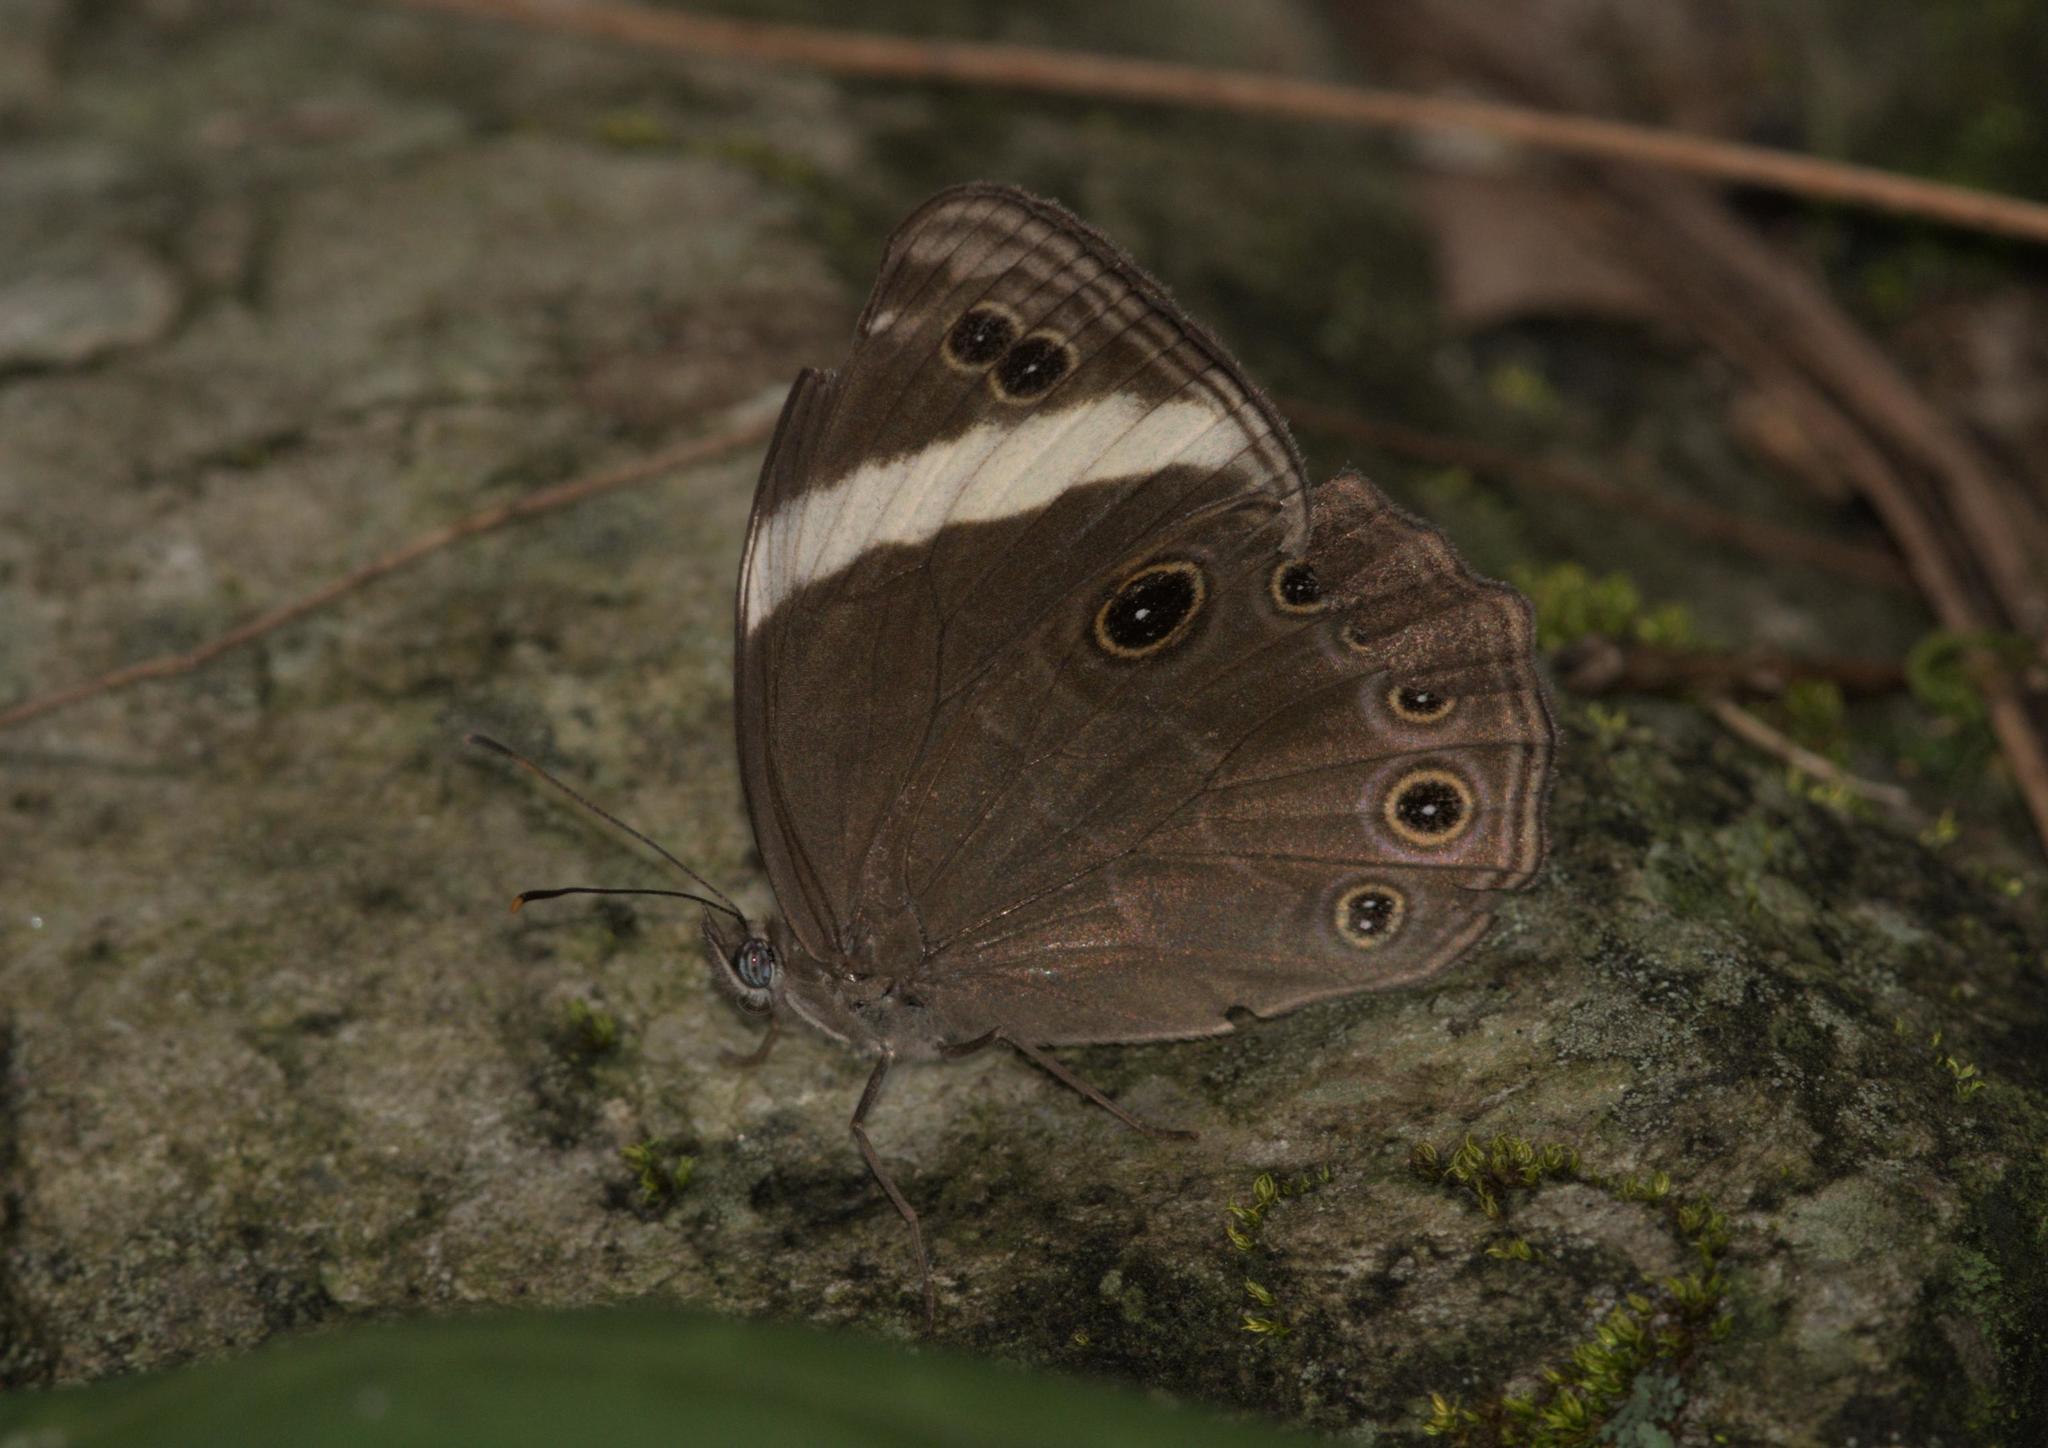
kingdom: Animalia
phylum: Arthropoda
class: Insecta
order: Lepidoptera
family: Nymphalidae
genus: Lethe
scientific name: Lethe verma
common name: Straight-banded treebrown
